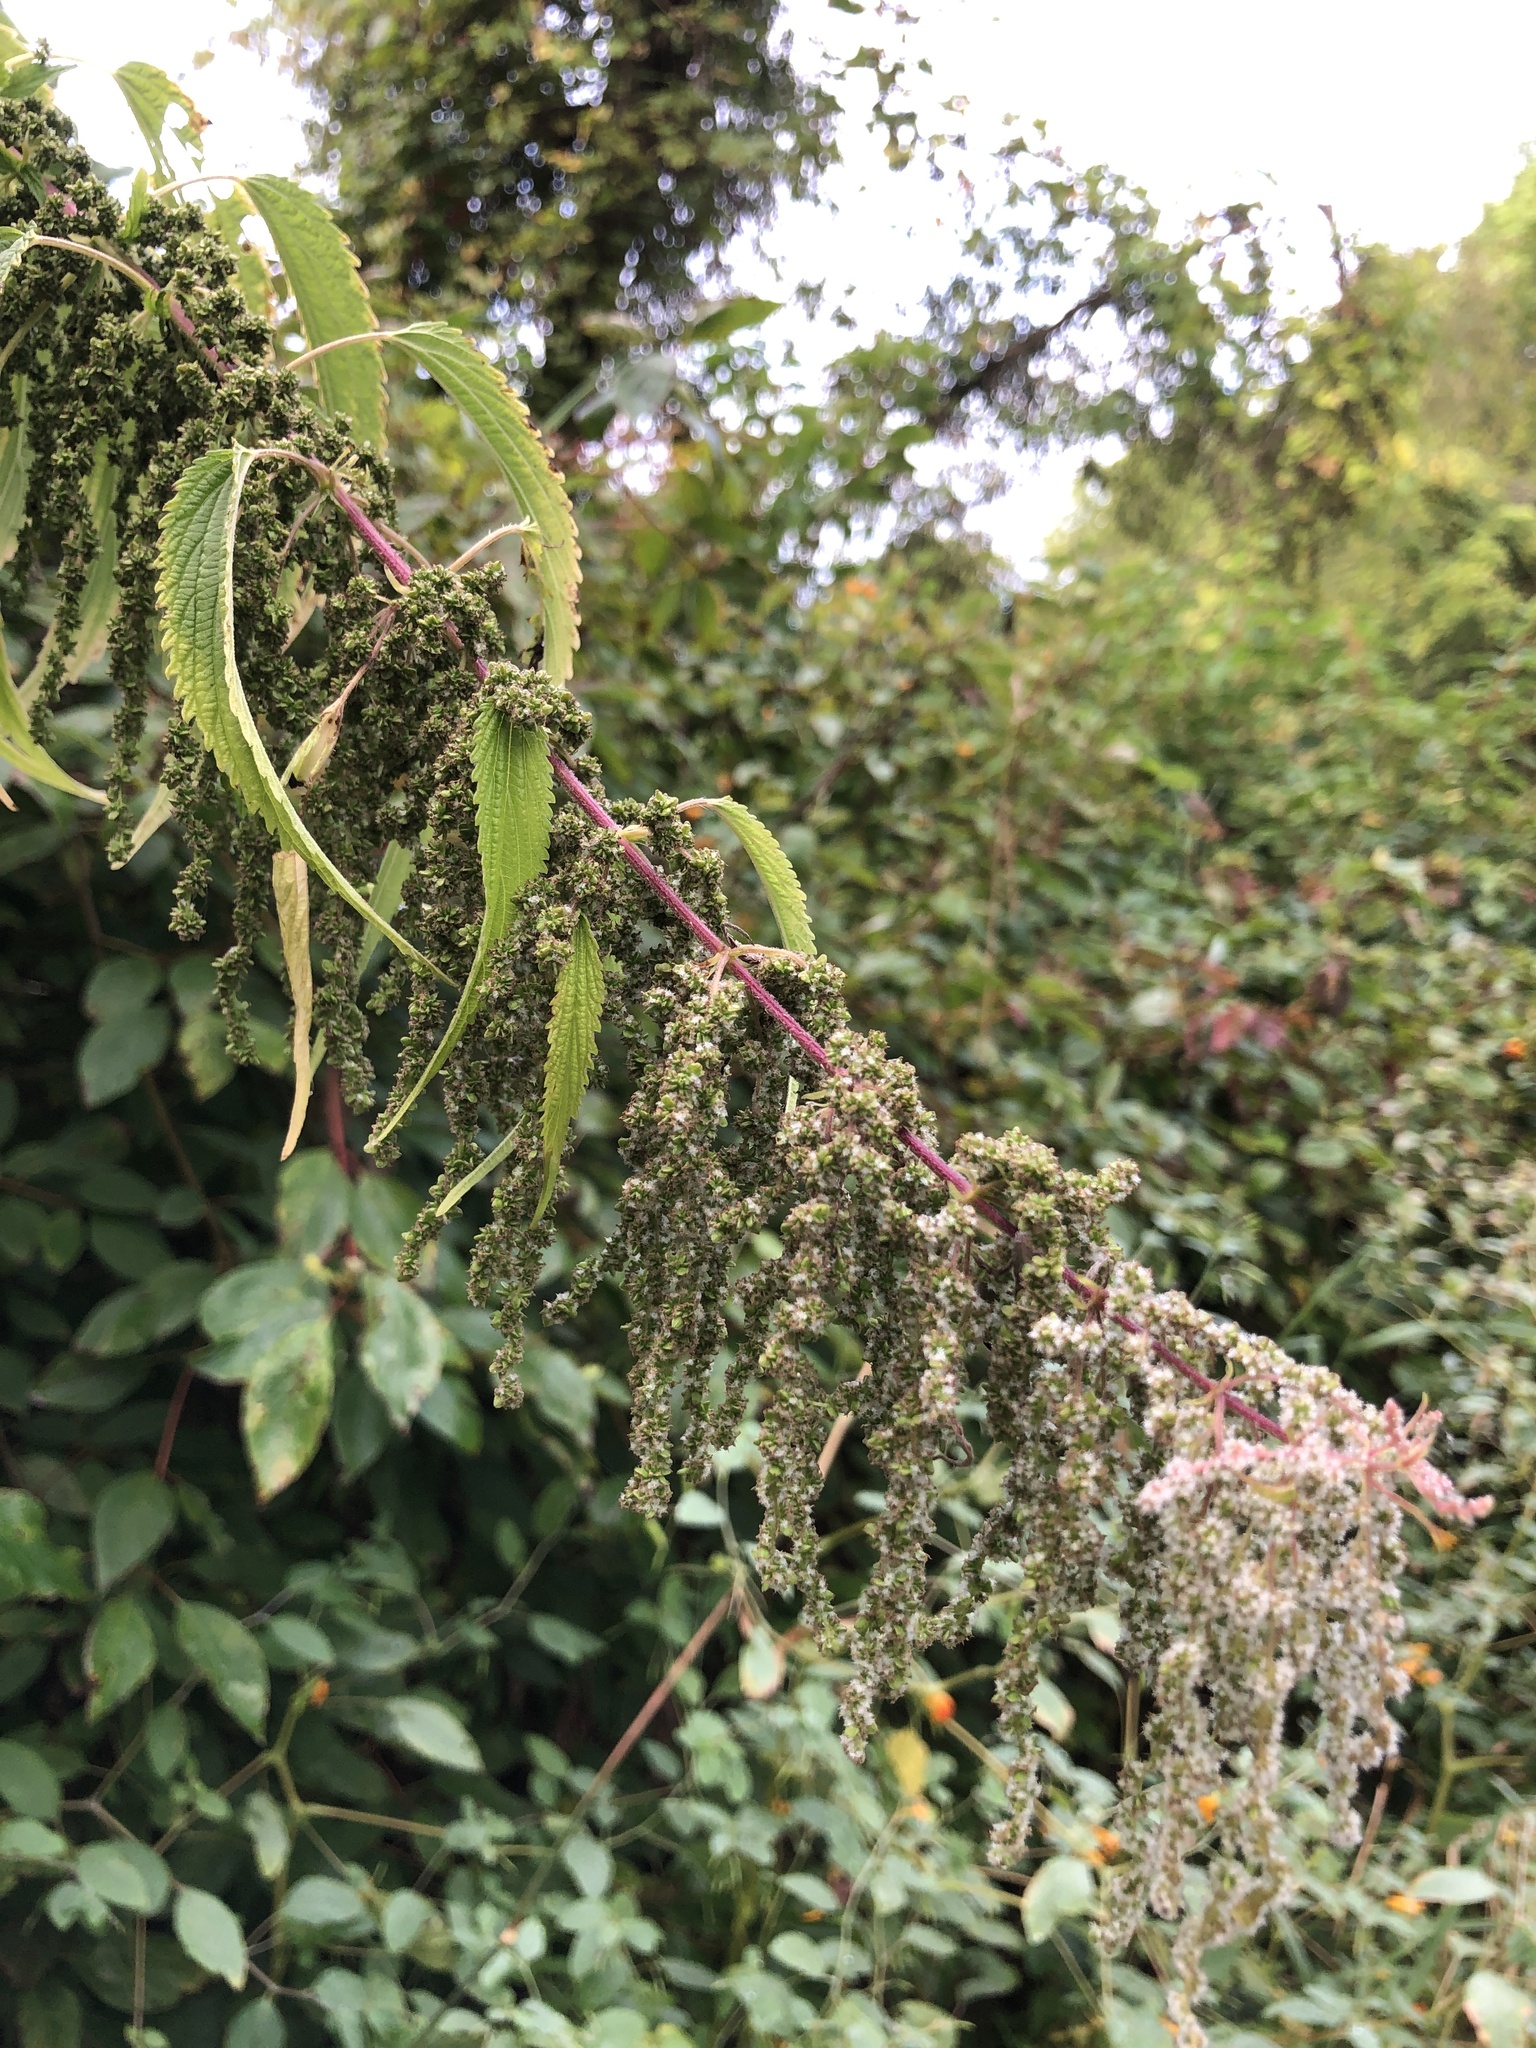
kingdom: Plantae
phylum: Tracheophyta
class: Magnoliopsida
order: Rosales
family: Urticaceae
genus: Urtica
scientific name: Urtica gracilis
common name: Slender stinging nettle
